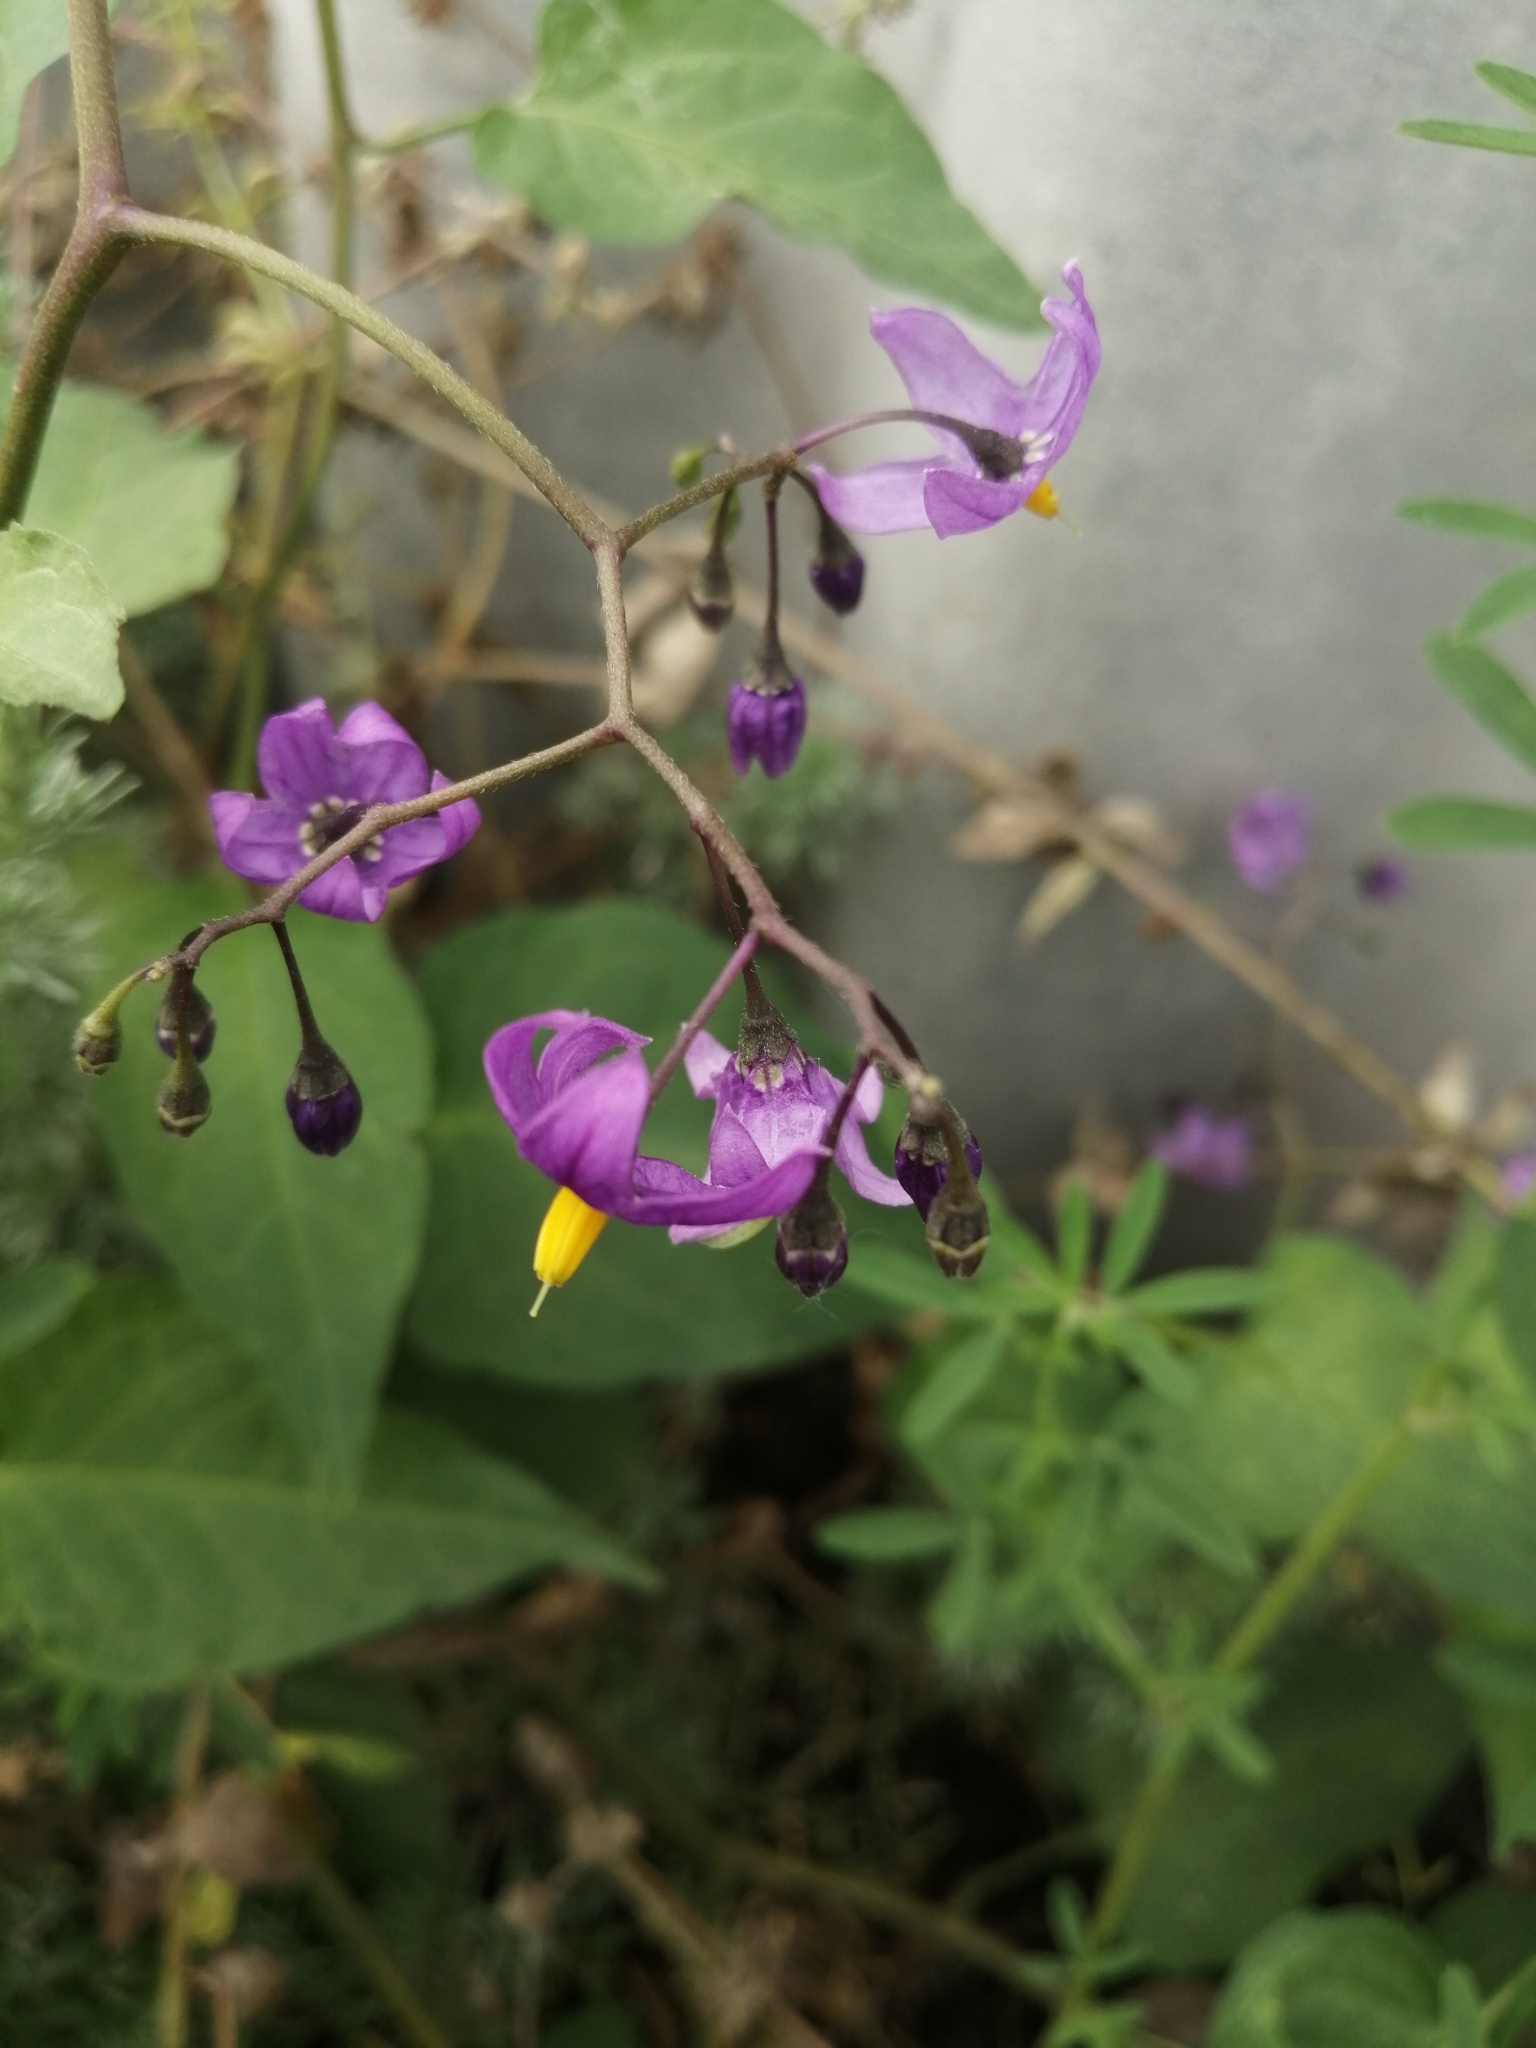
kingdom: Plantae
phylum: Tracheophyta
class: Magnoliopsida
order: Solanales
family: Solanaceae
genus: Solanum
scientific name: Solanum dulcamara
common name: Climbing nightshade
